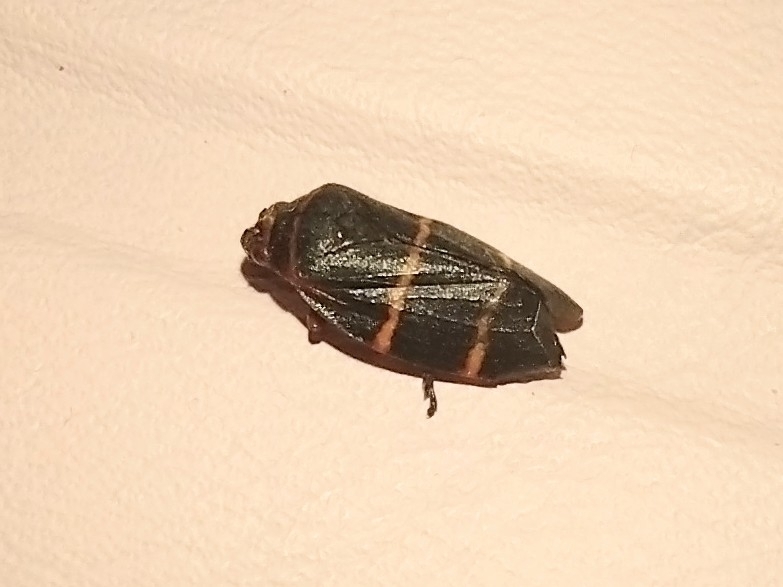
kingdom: Animalia
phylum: Arthropoda
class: Insecta
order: Hemiptera
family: Cercopidae
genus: Prosapia
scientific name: Prosapia bicincta
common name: Twolined spittlebug
